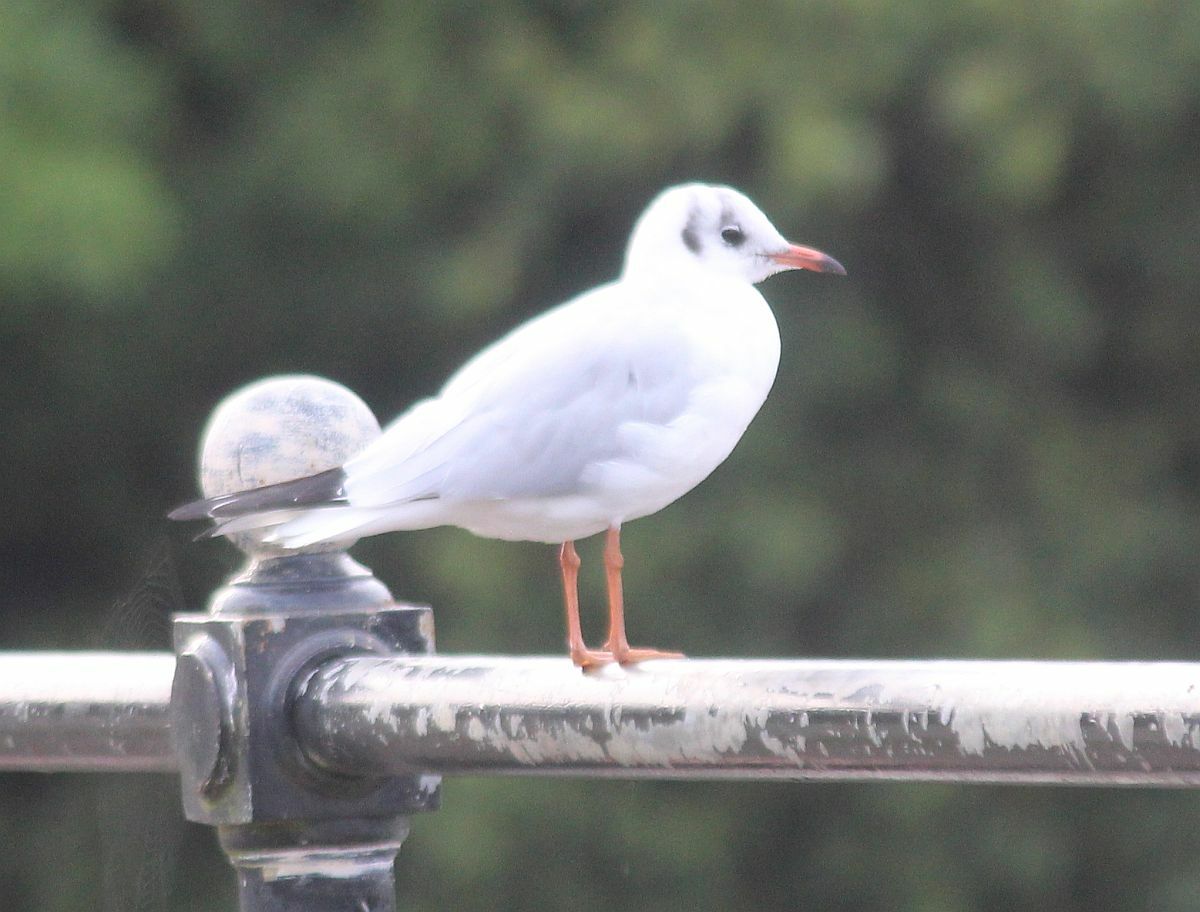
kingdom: Animalia
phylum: Chordata
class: Aves
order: Charadriiformes
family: Laridae
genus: Chroicocephalus
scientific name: Chroicocephalus ridibundus
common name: Black-headed gull
